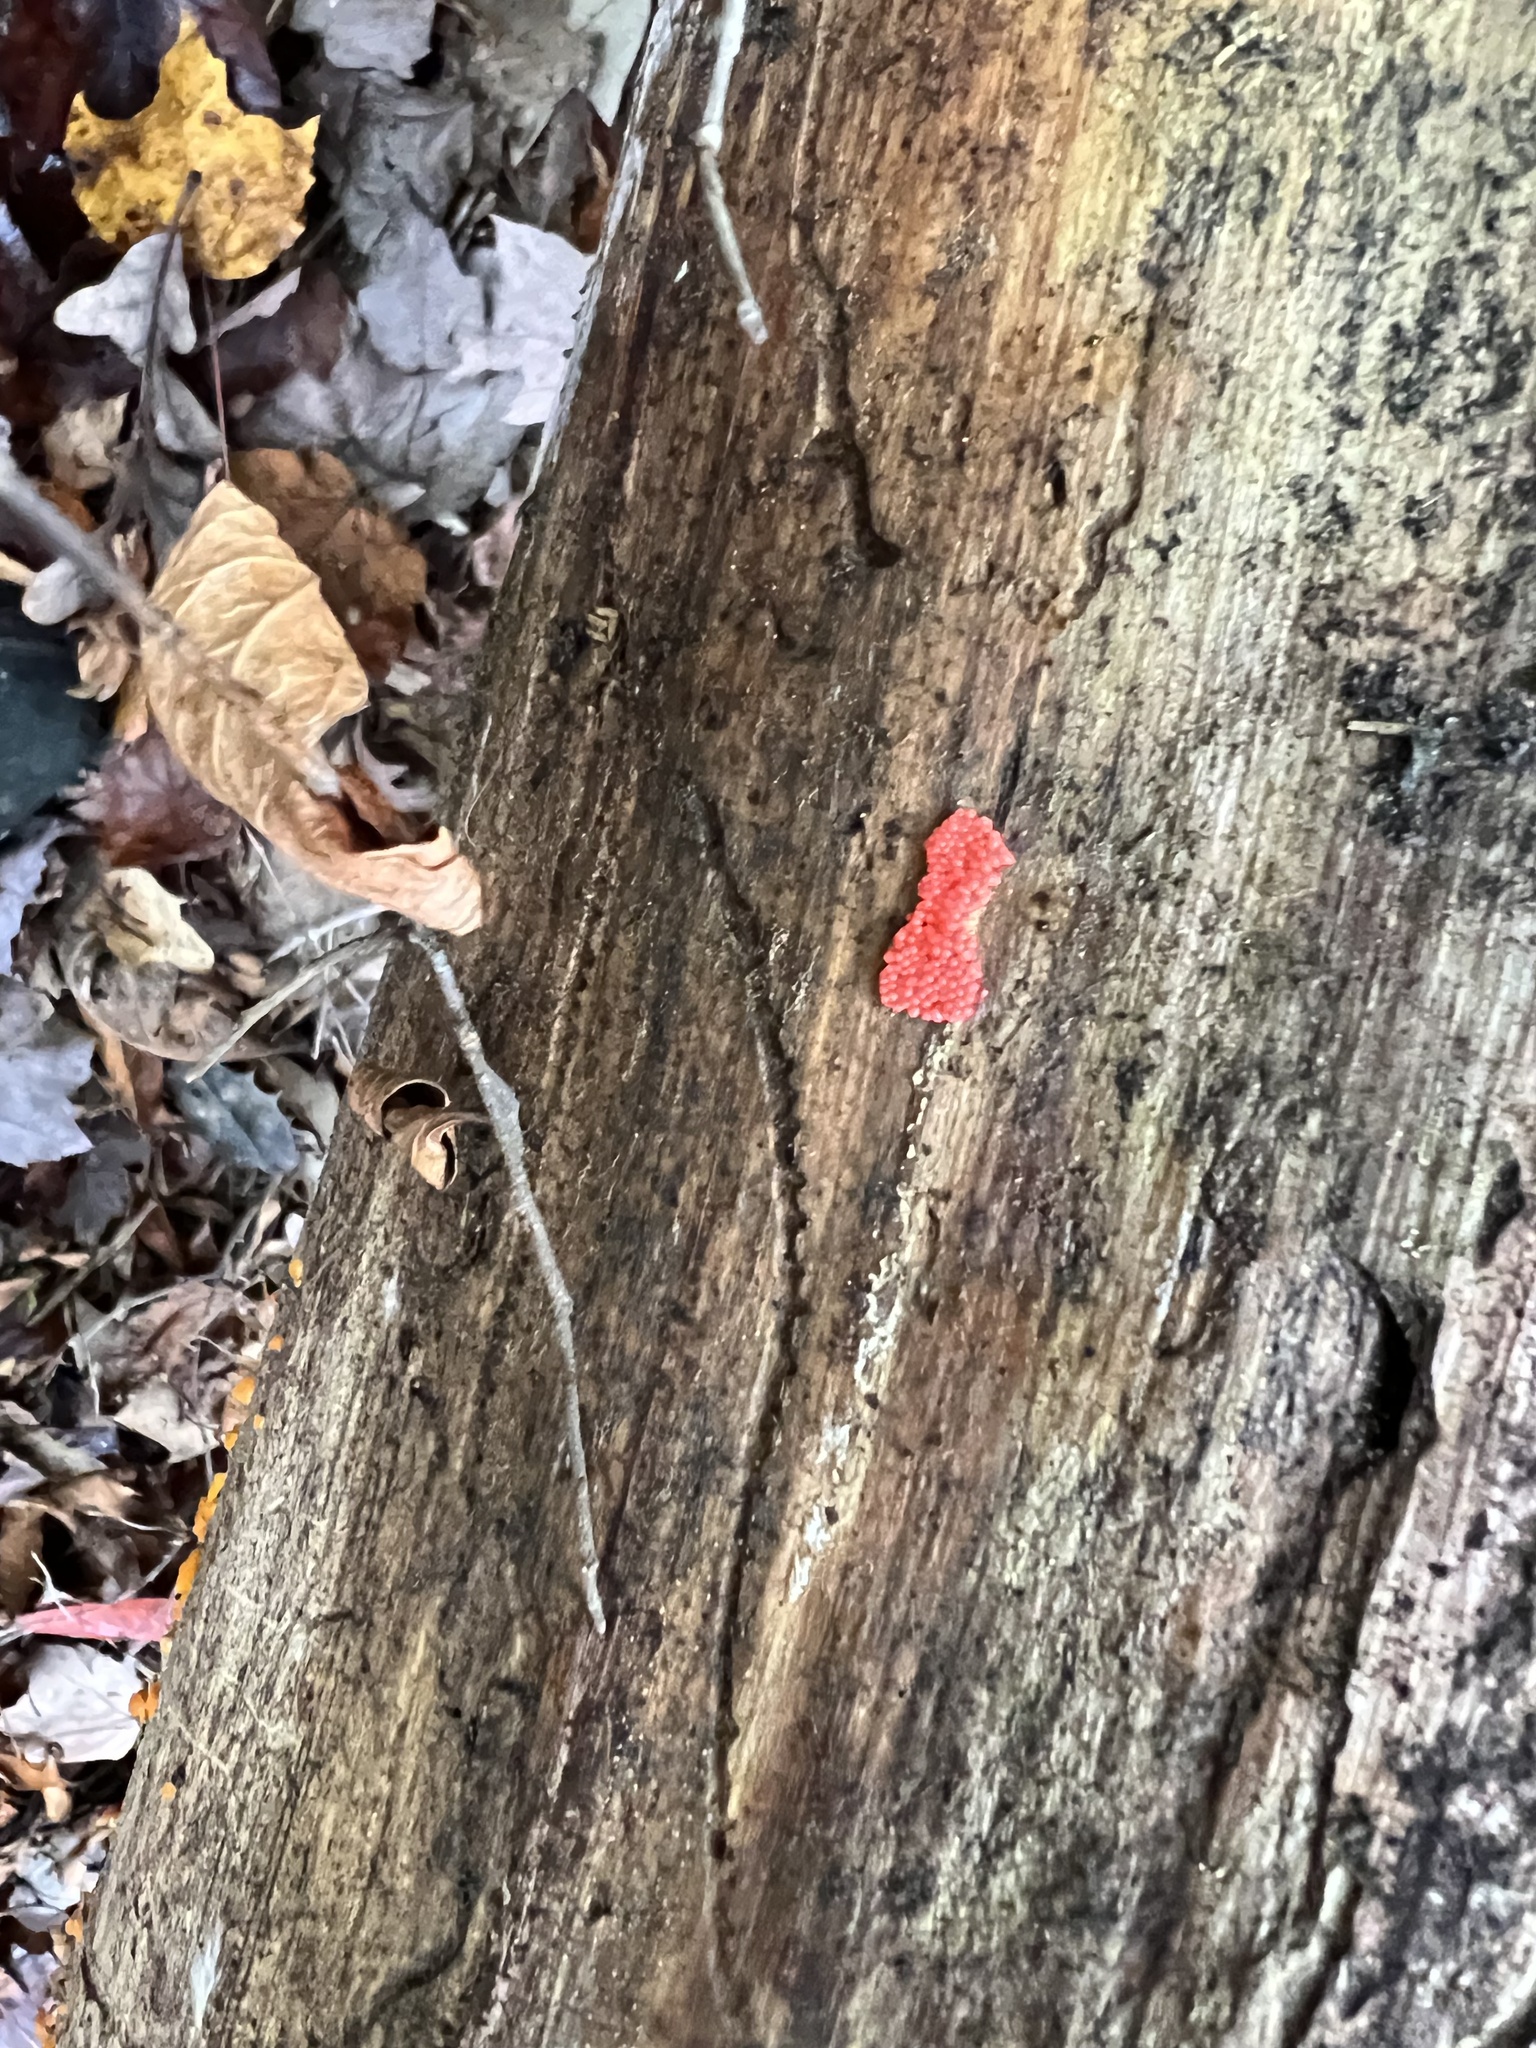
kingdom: Protozoa
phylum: Mycetozoa
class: Myxomycetes
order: Cribrariales
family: Tubiferaceae
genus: Tubifera
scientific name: Tubifera ferruginosa
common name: Red raspberry slime mold
